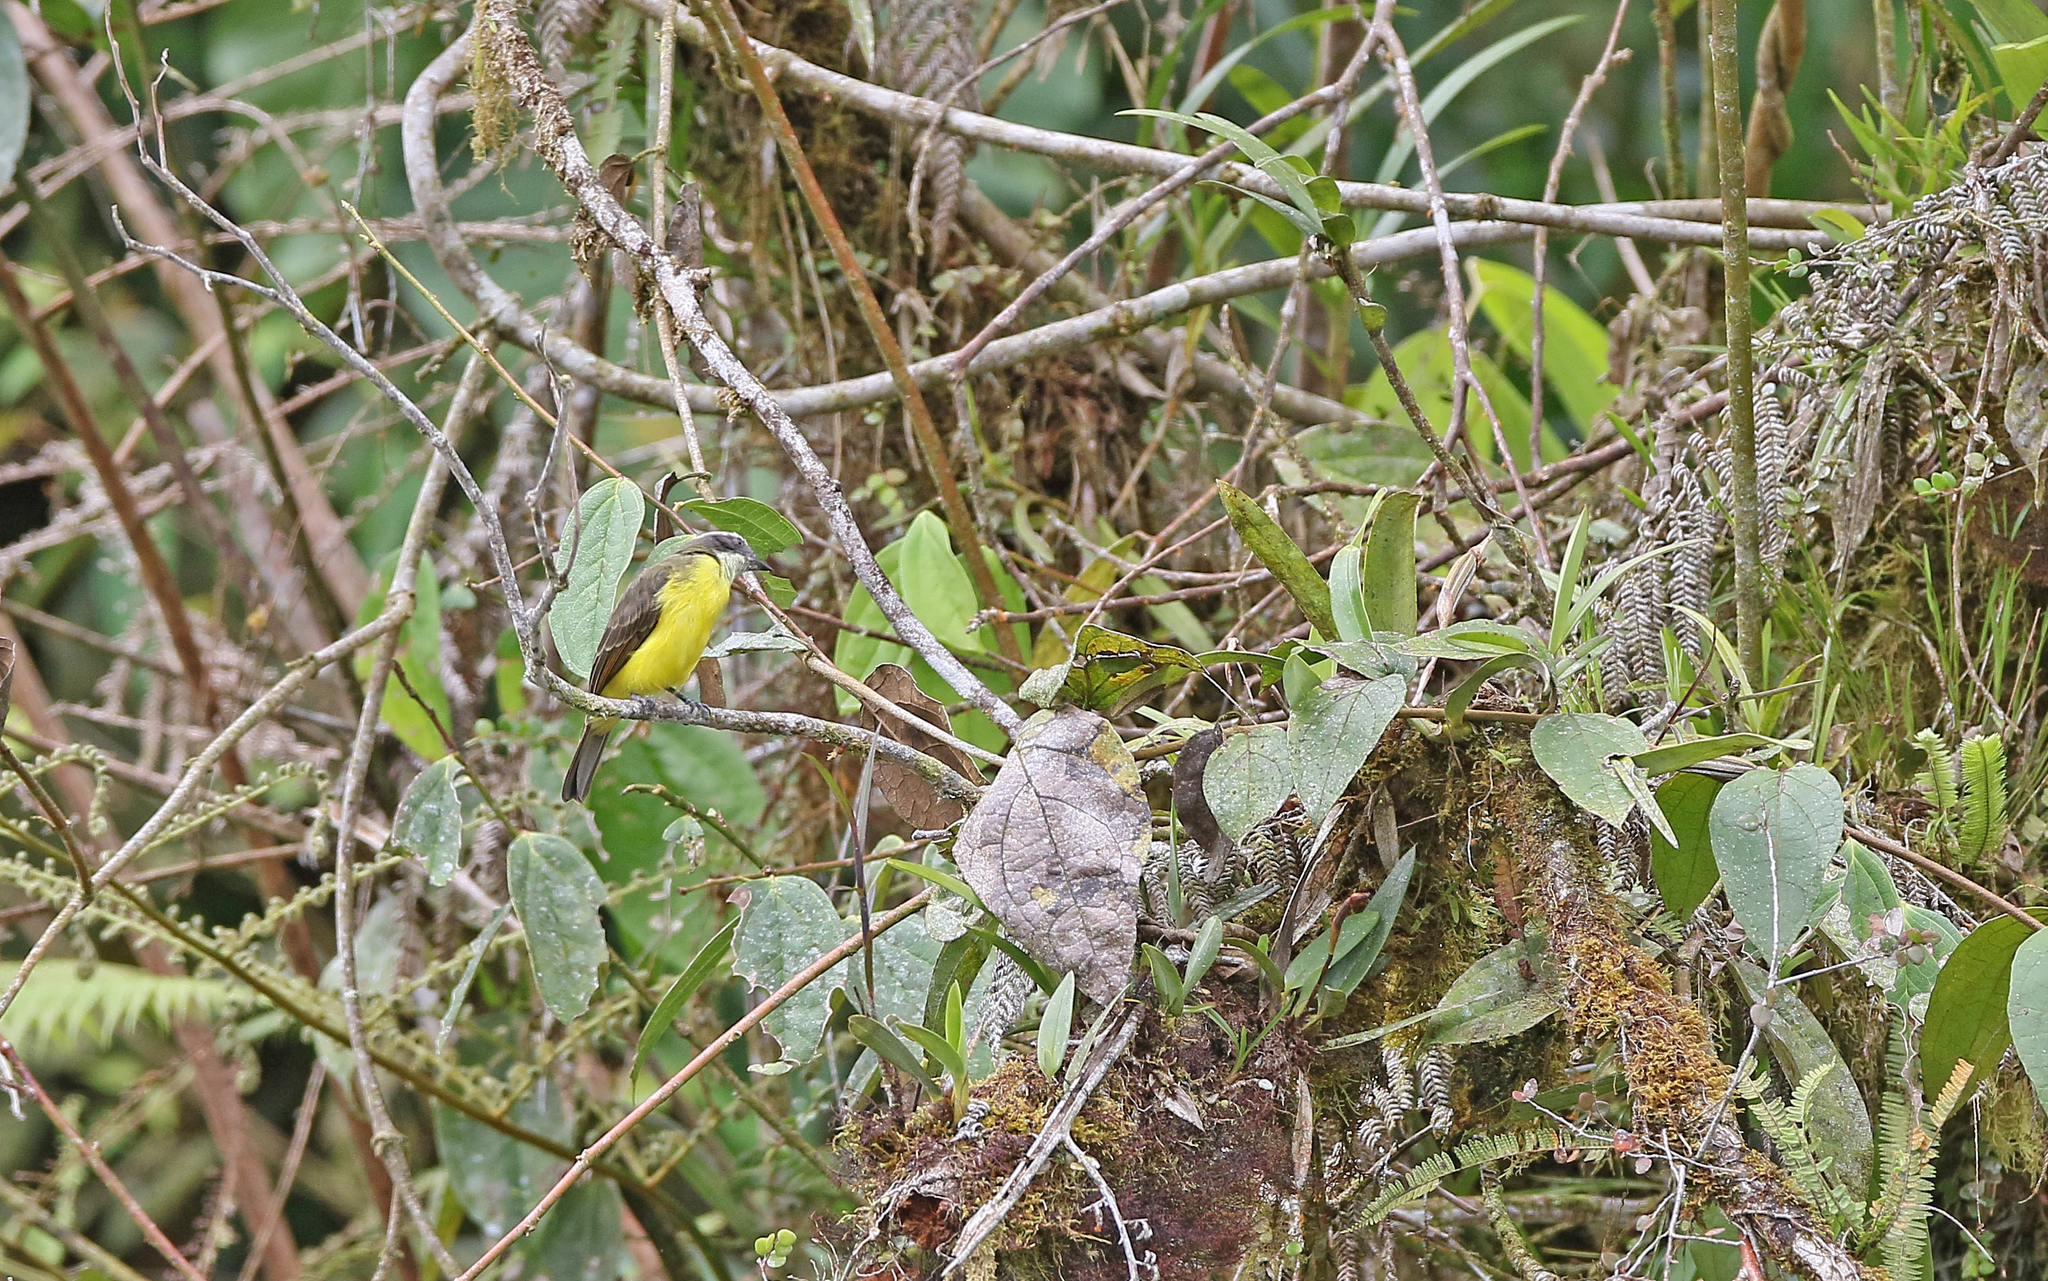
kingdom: Animalia
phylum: Chordata
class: Aves
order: Passeriformes
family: Tyrannidae
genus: Myiozetetes
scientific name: Myiozetetes similis
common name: Social flycatcher
